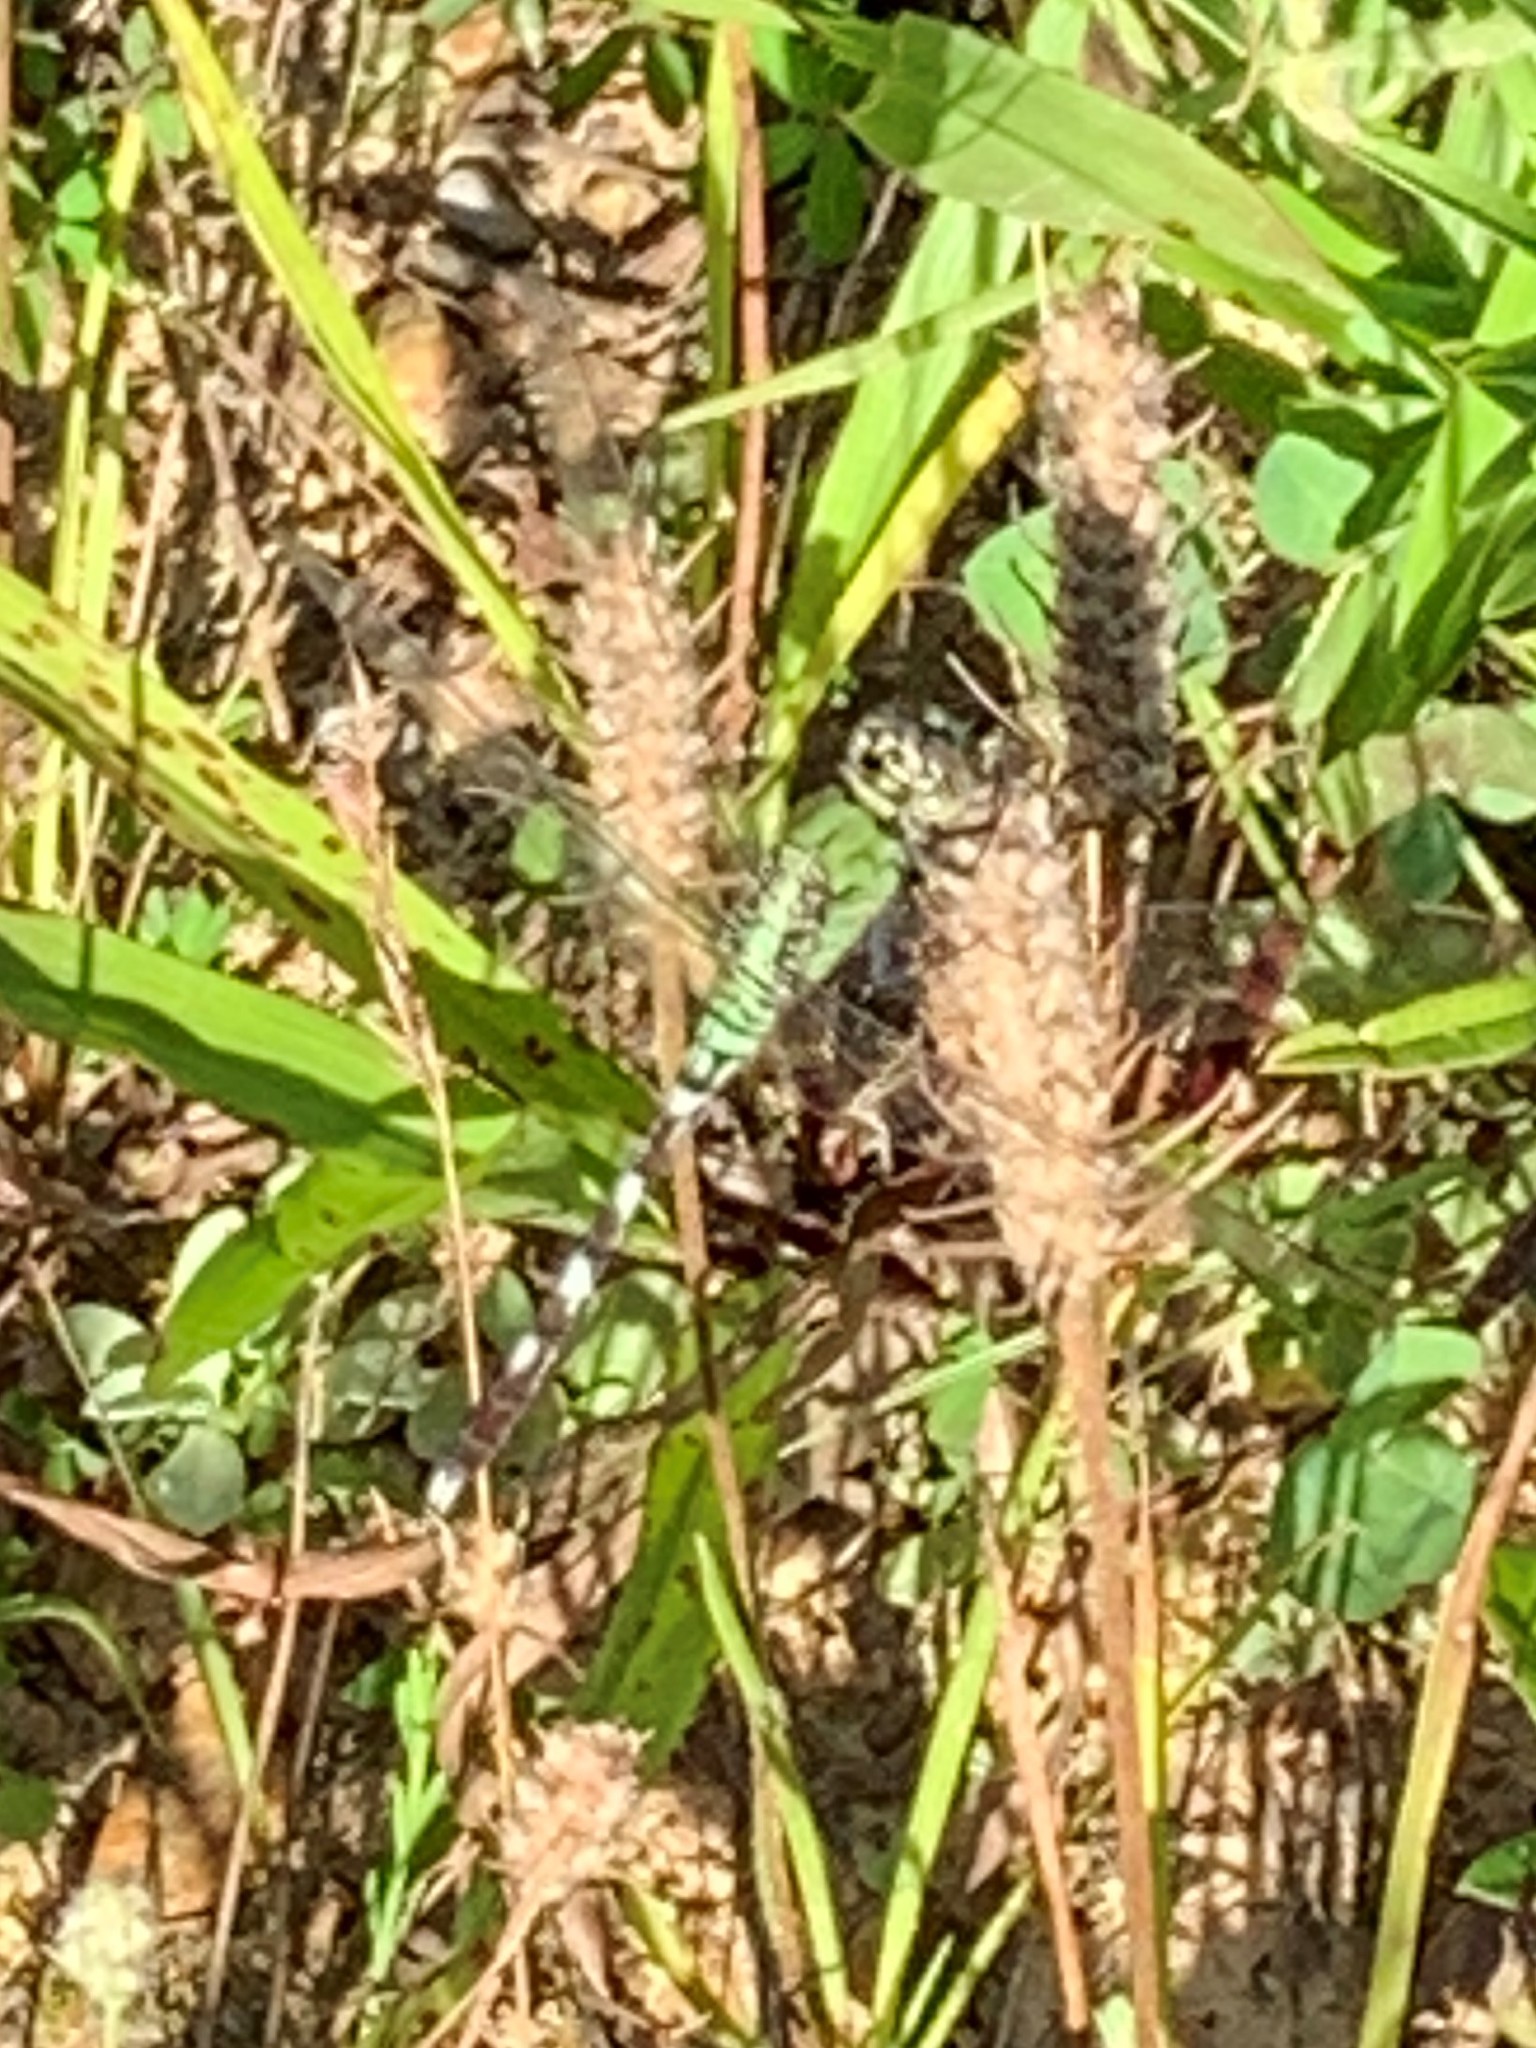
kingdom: Animalia
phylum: Arthropoda
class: Insecta
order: Odonata
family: Libellulidae
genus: Erythemis
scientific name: Erythemis simplicicollis
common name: Eastern pondhawk
